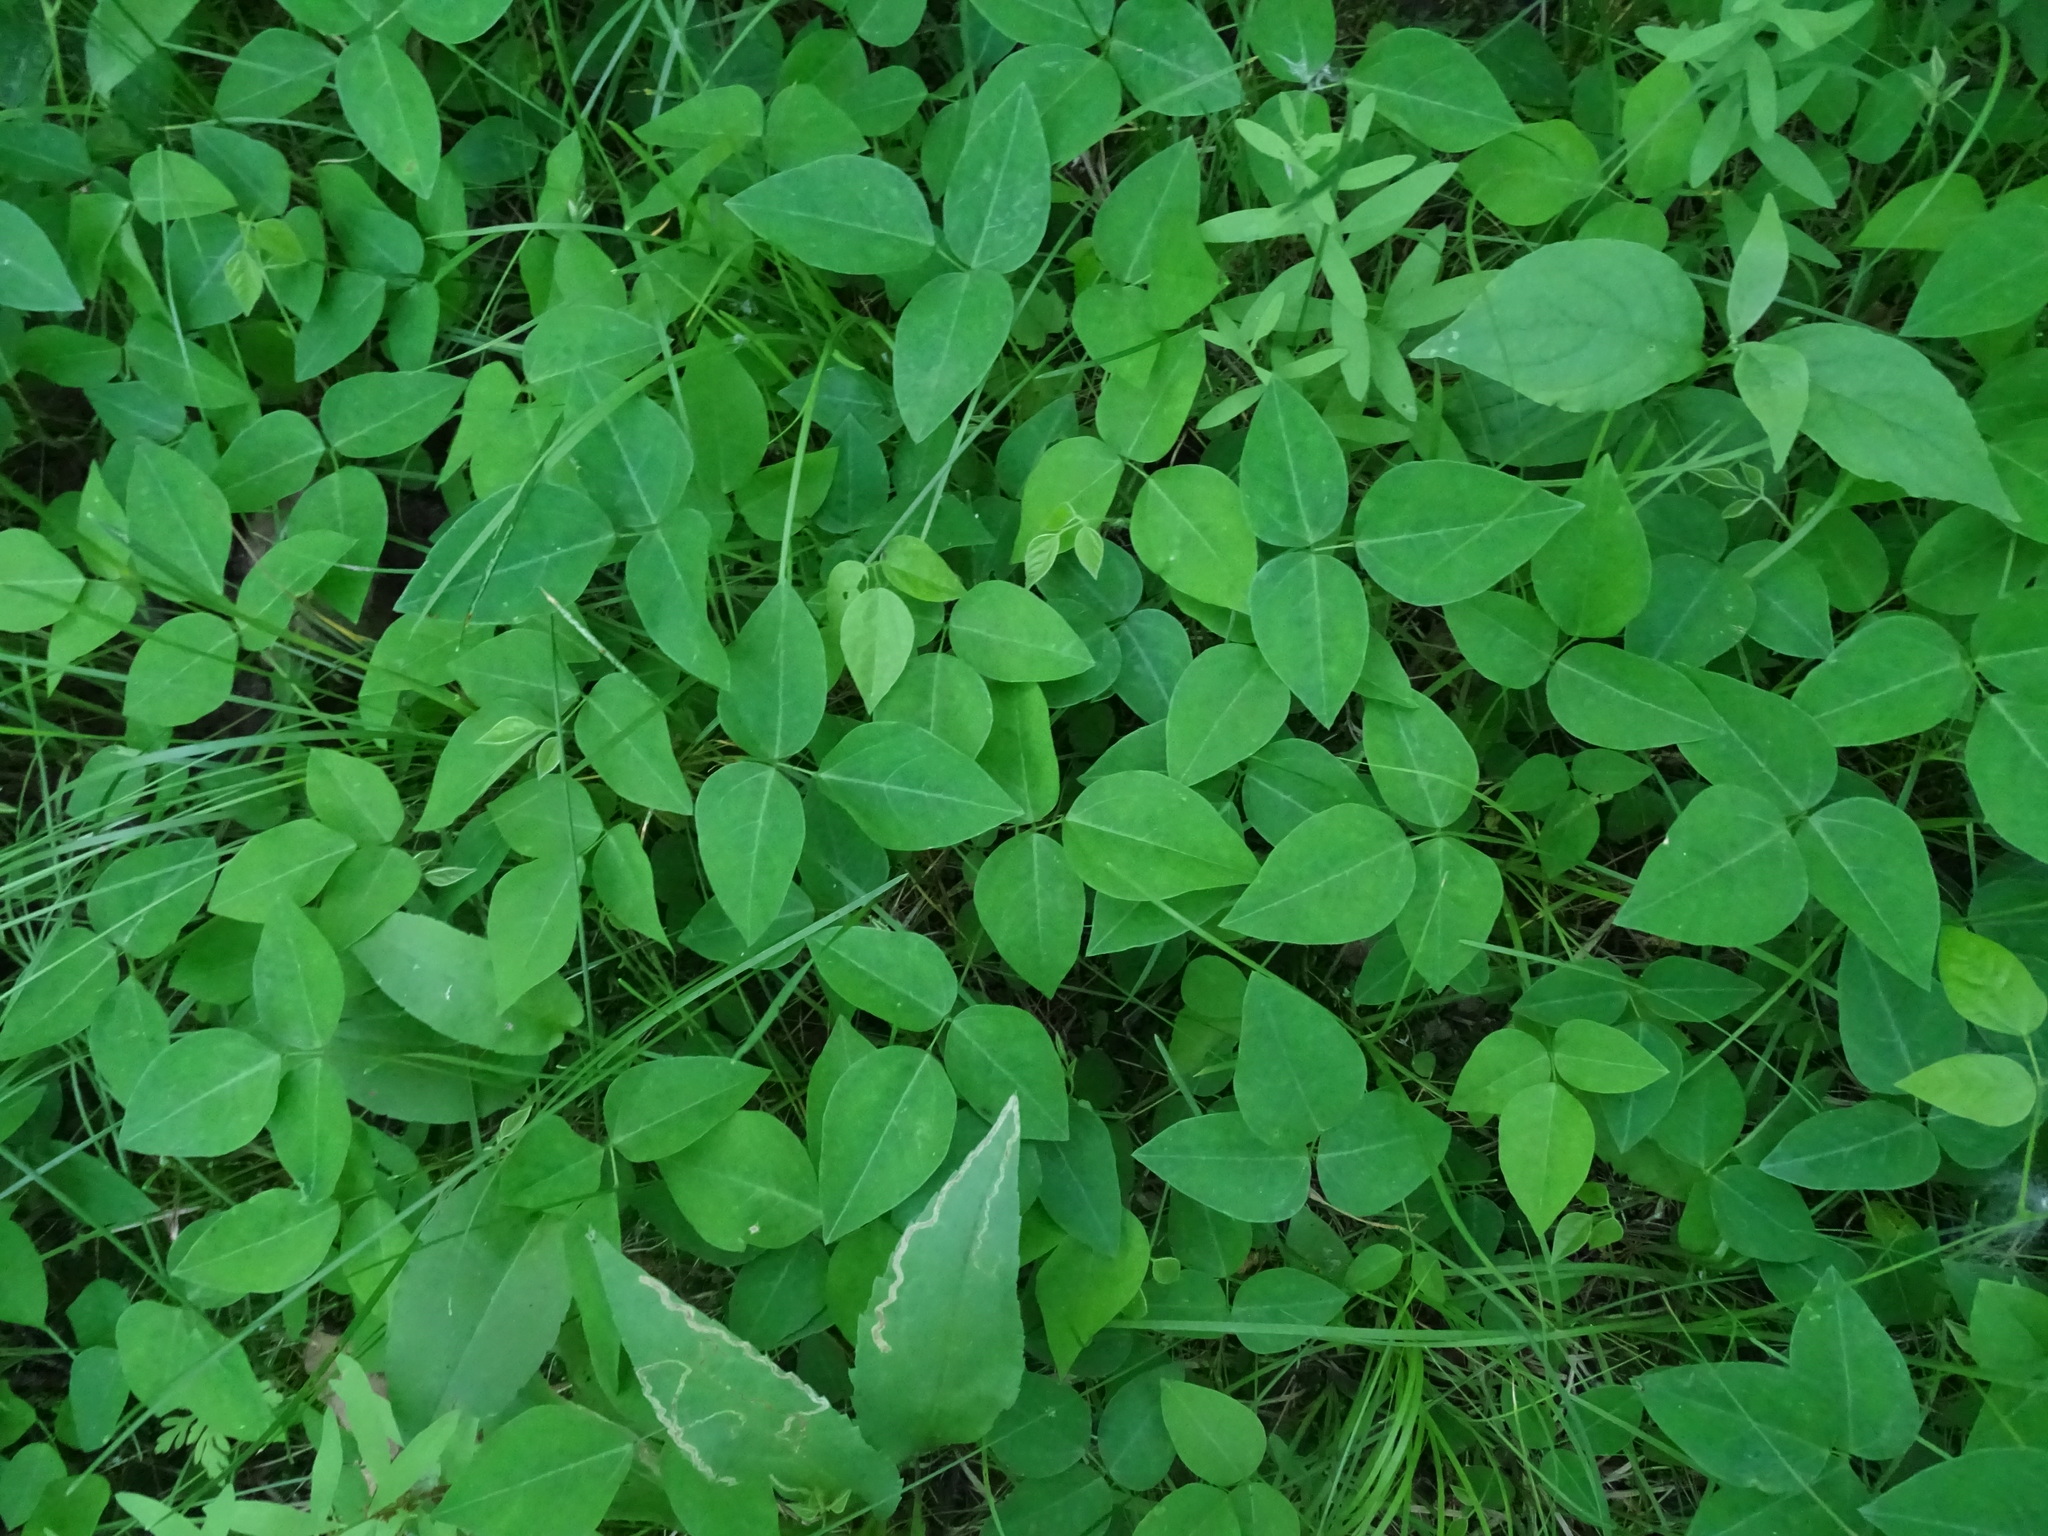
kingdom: Plantae
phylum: Tracheophyta
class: Magnoliopsida
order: Fabales
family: Fabaceae
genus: Amphicarpaea
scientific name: Amphicarpaea bracteata
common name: American hog peanut
